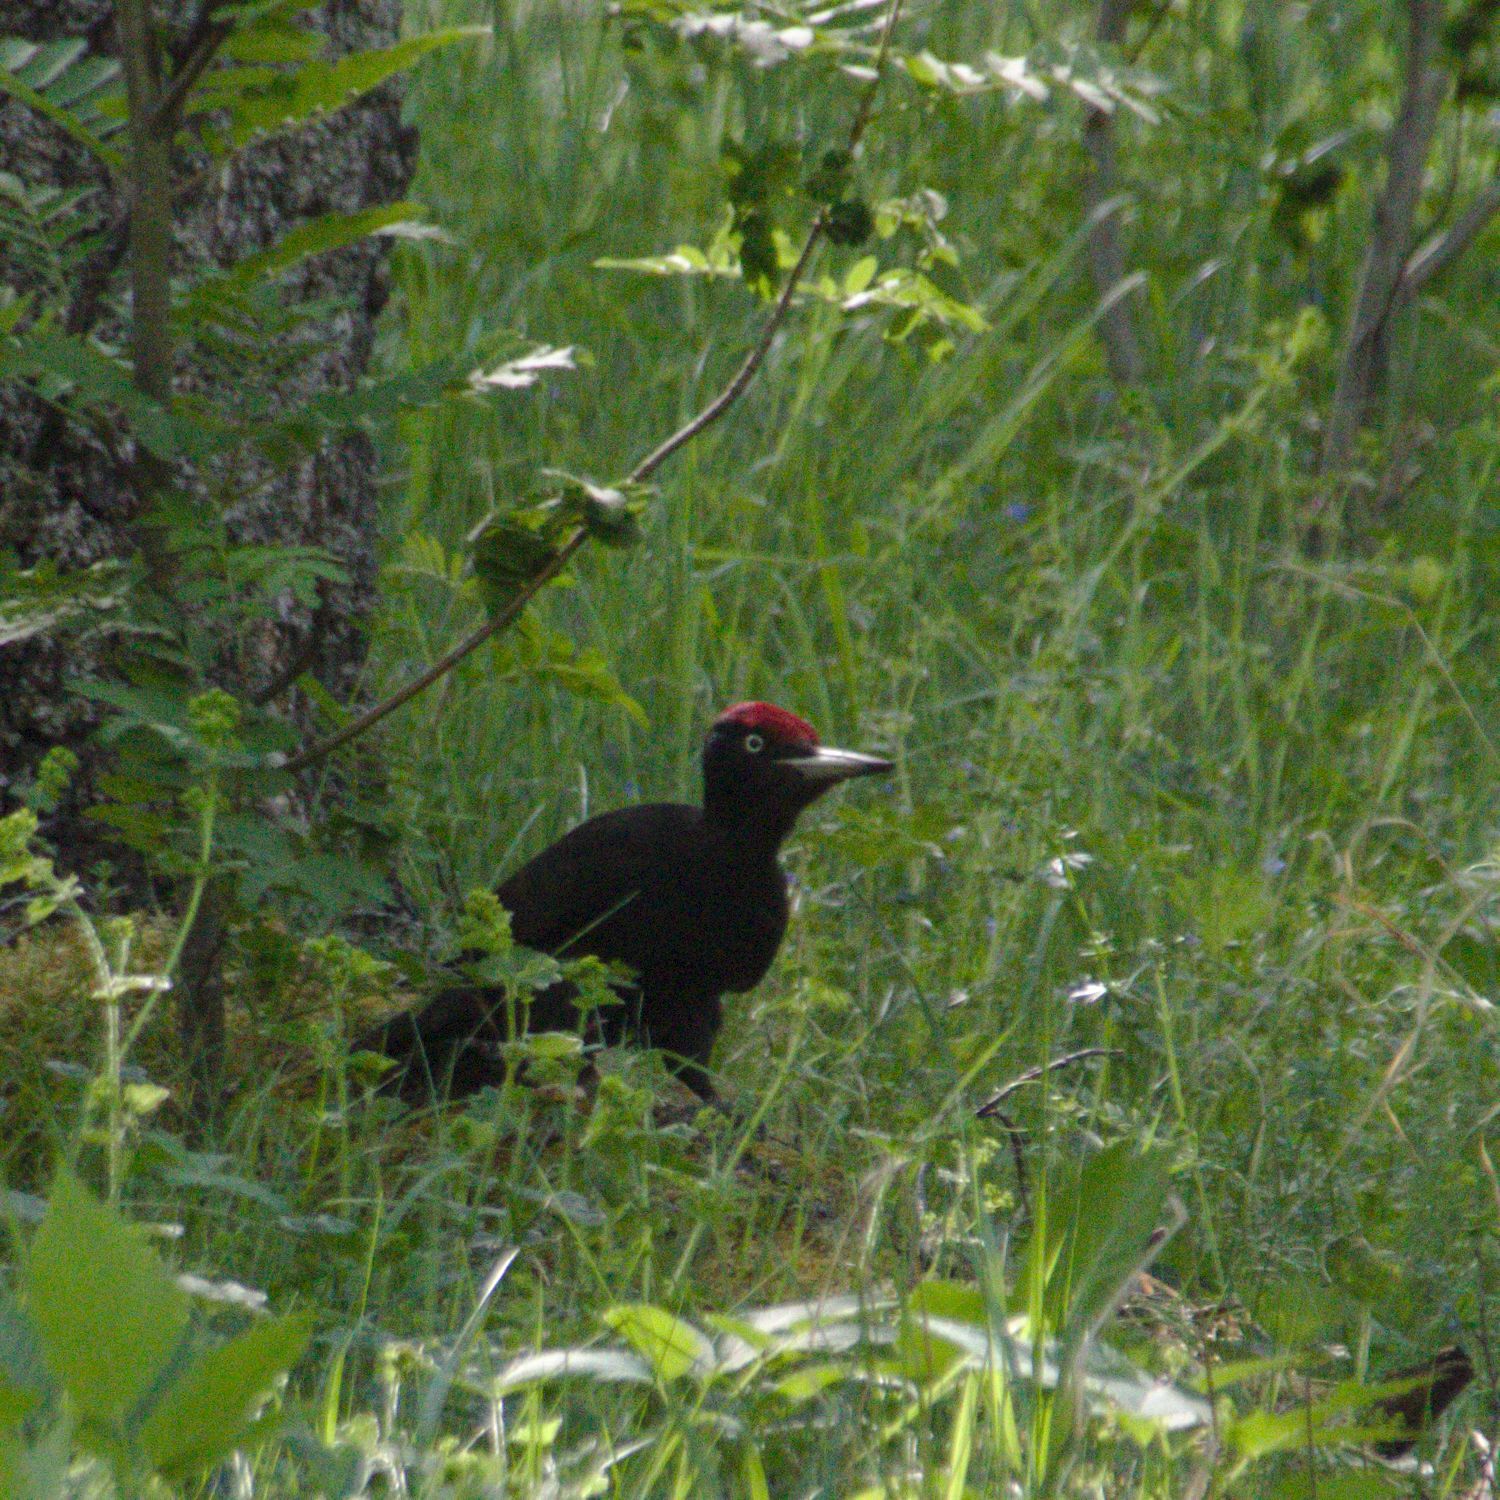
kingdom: Animalia
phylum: Chordata
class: Aves
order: Piciformes
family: Picidae
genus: Dryocopus
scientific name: Dryocopus martius
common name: Black woodpecker
